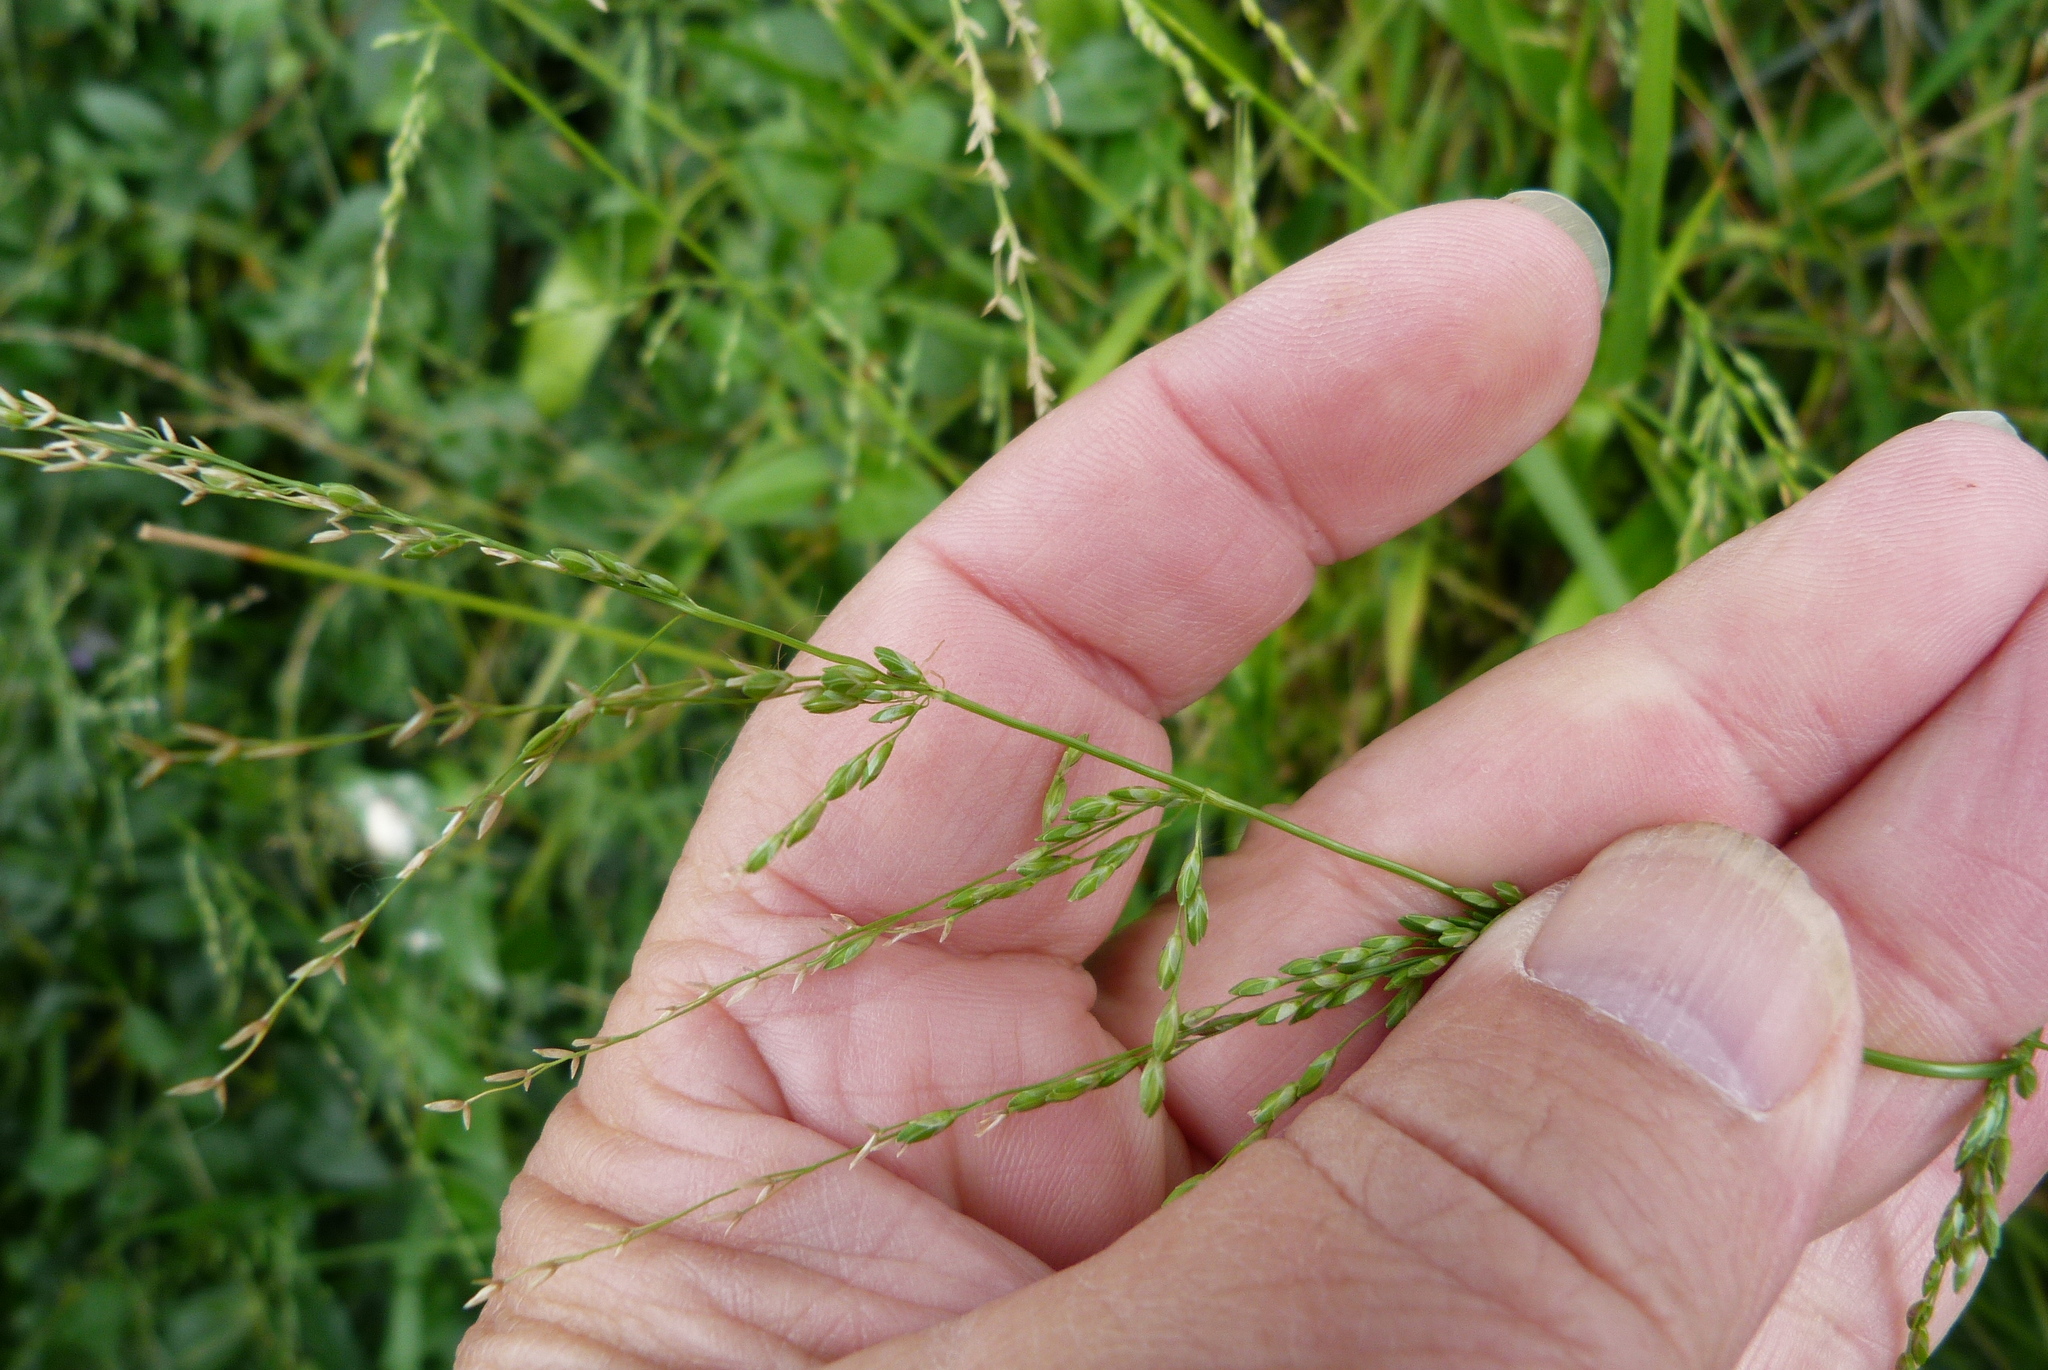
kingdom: Plantae
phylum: Tracheophyta
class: Liliopsida
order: Poales
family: Poaceae
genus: Ehrharta
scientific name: Ehrharta erecta
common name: Panic veldtgrass
